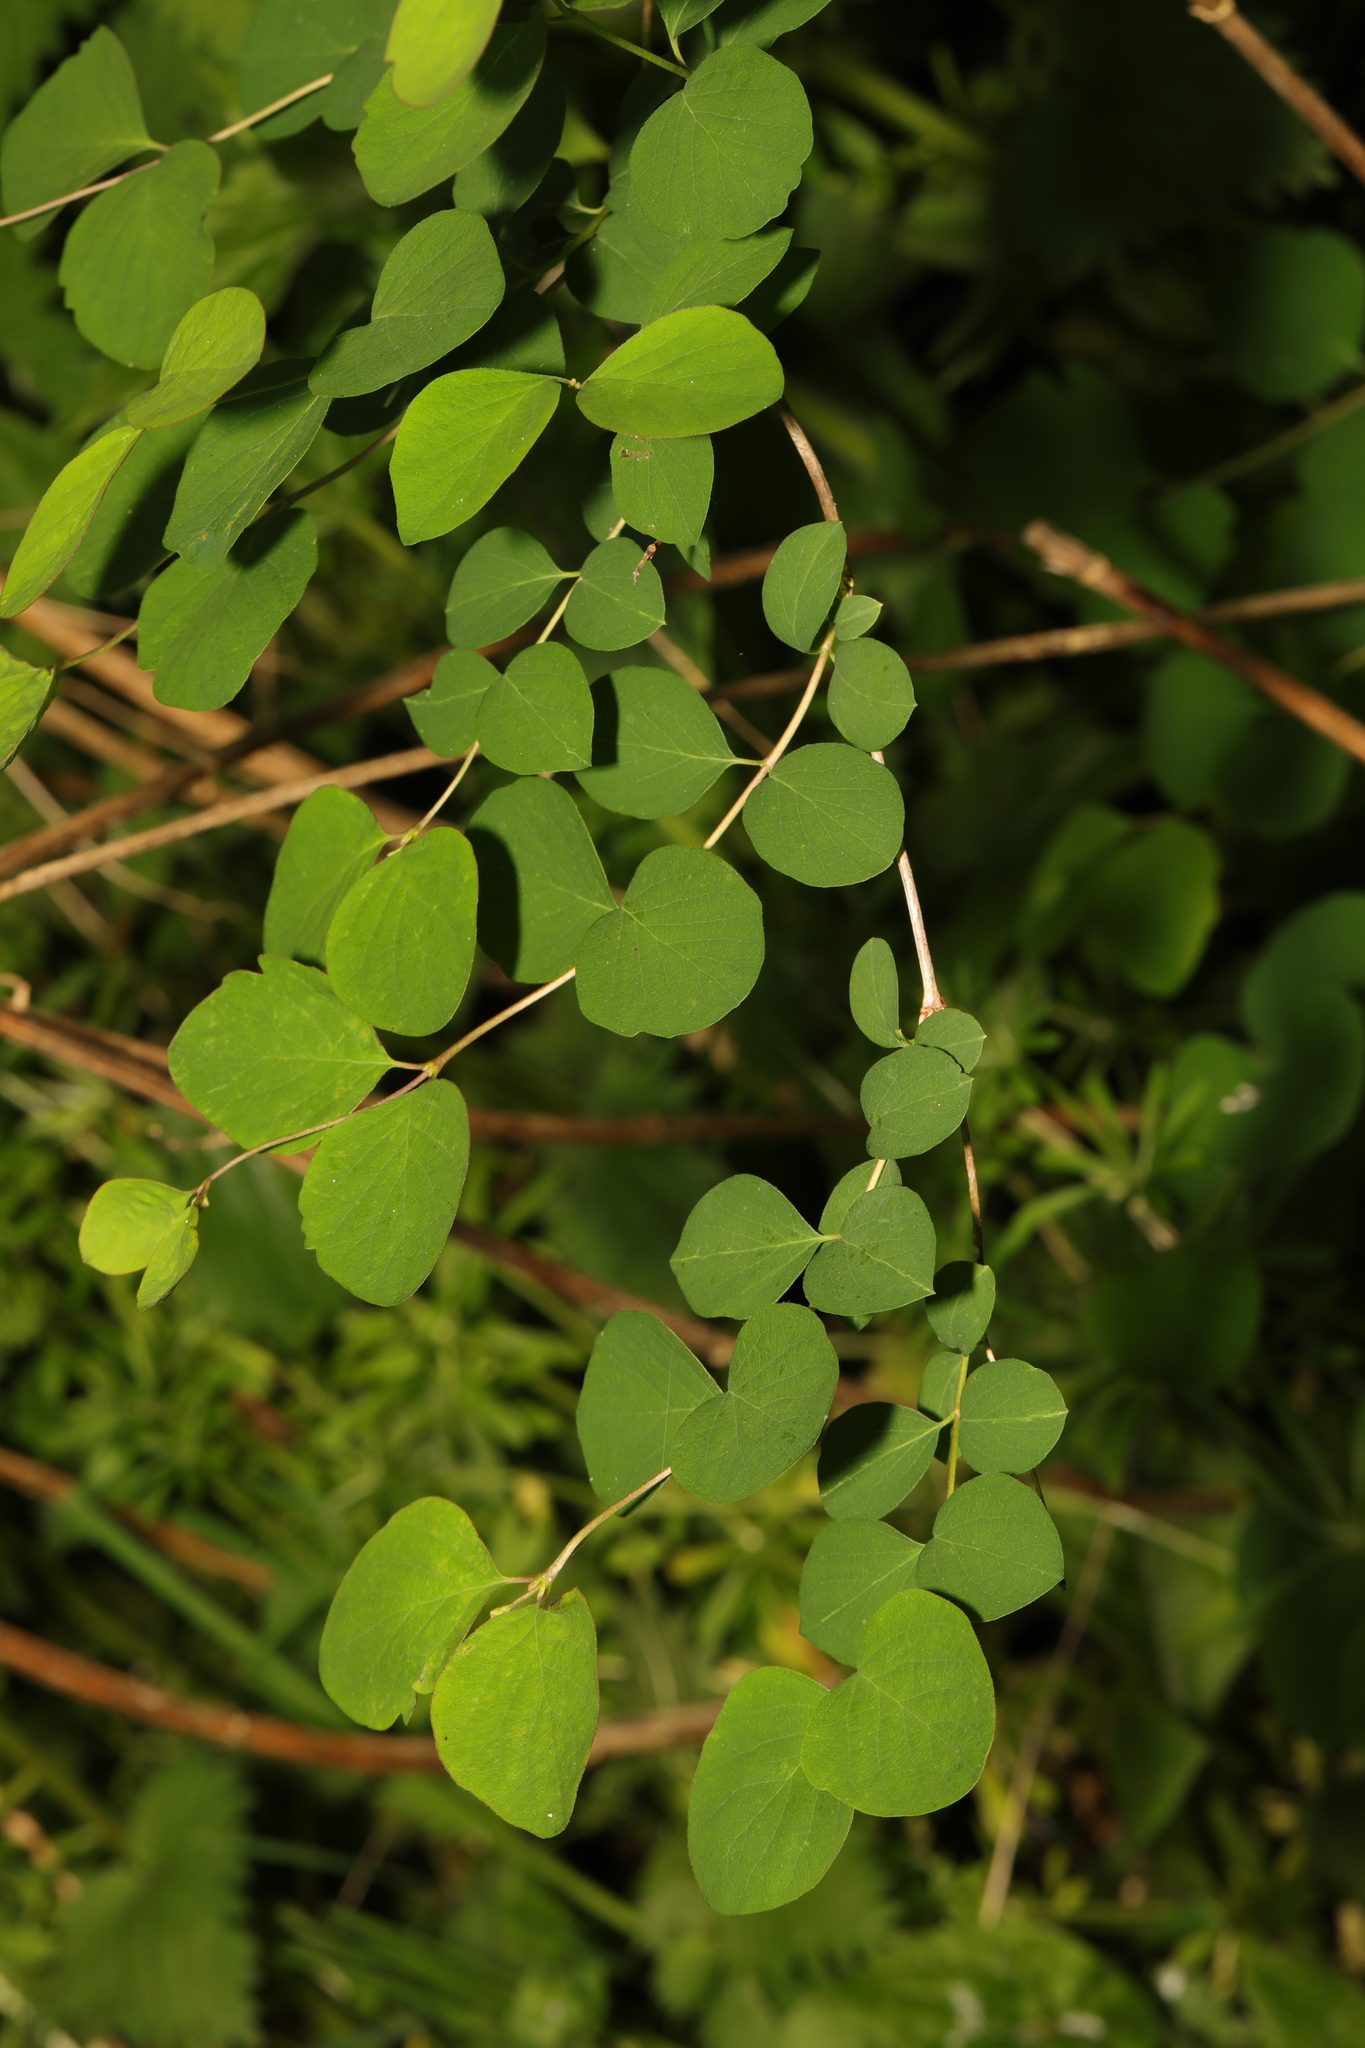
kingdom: Plantae
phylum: Tracheophyta
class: Magnoliopsida
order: Dipsacales
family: Caprifoliaceae
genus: Symphoricarpos
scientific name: Symphoricarpos albus
